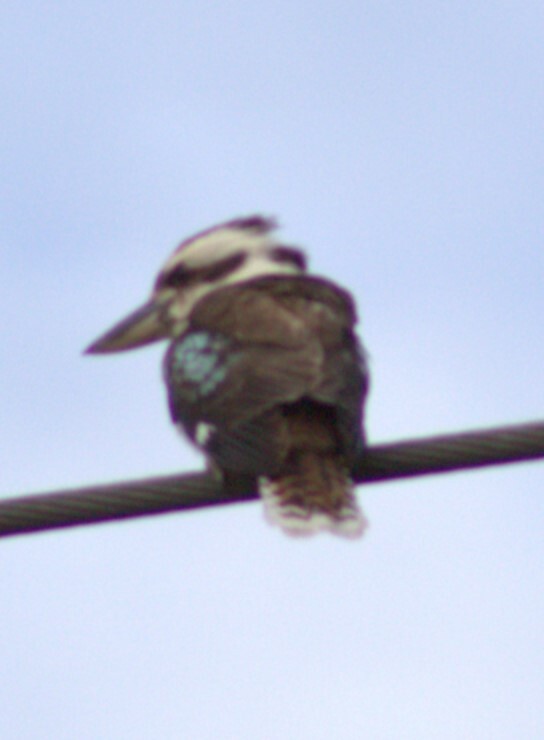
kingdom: Animalia
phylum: Chordata
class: Aves
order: Coraciiformes
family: Alcedinidae
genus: Dacelo
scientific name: Dacelo novaeguineae
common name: Laughing kookaburra
